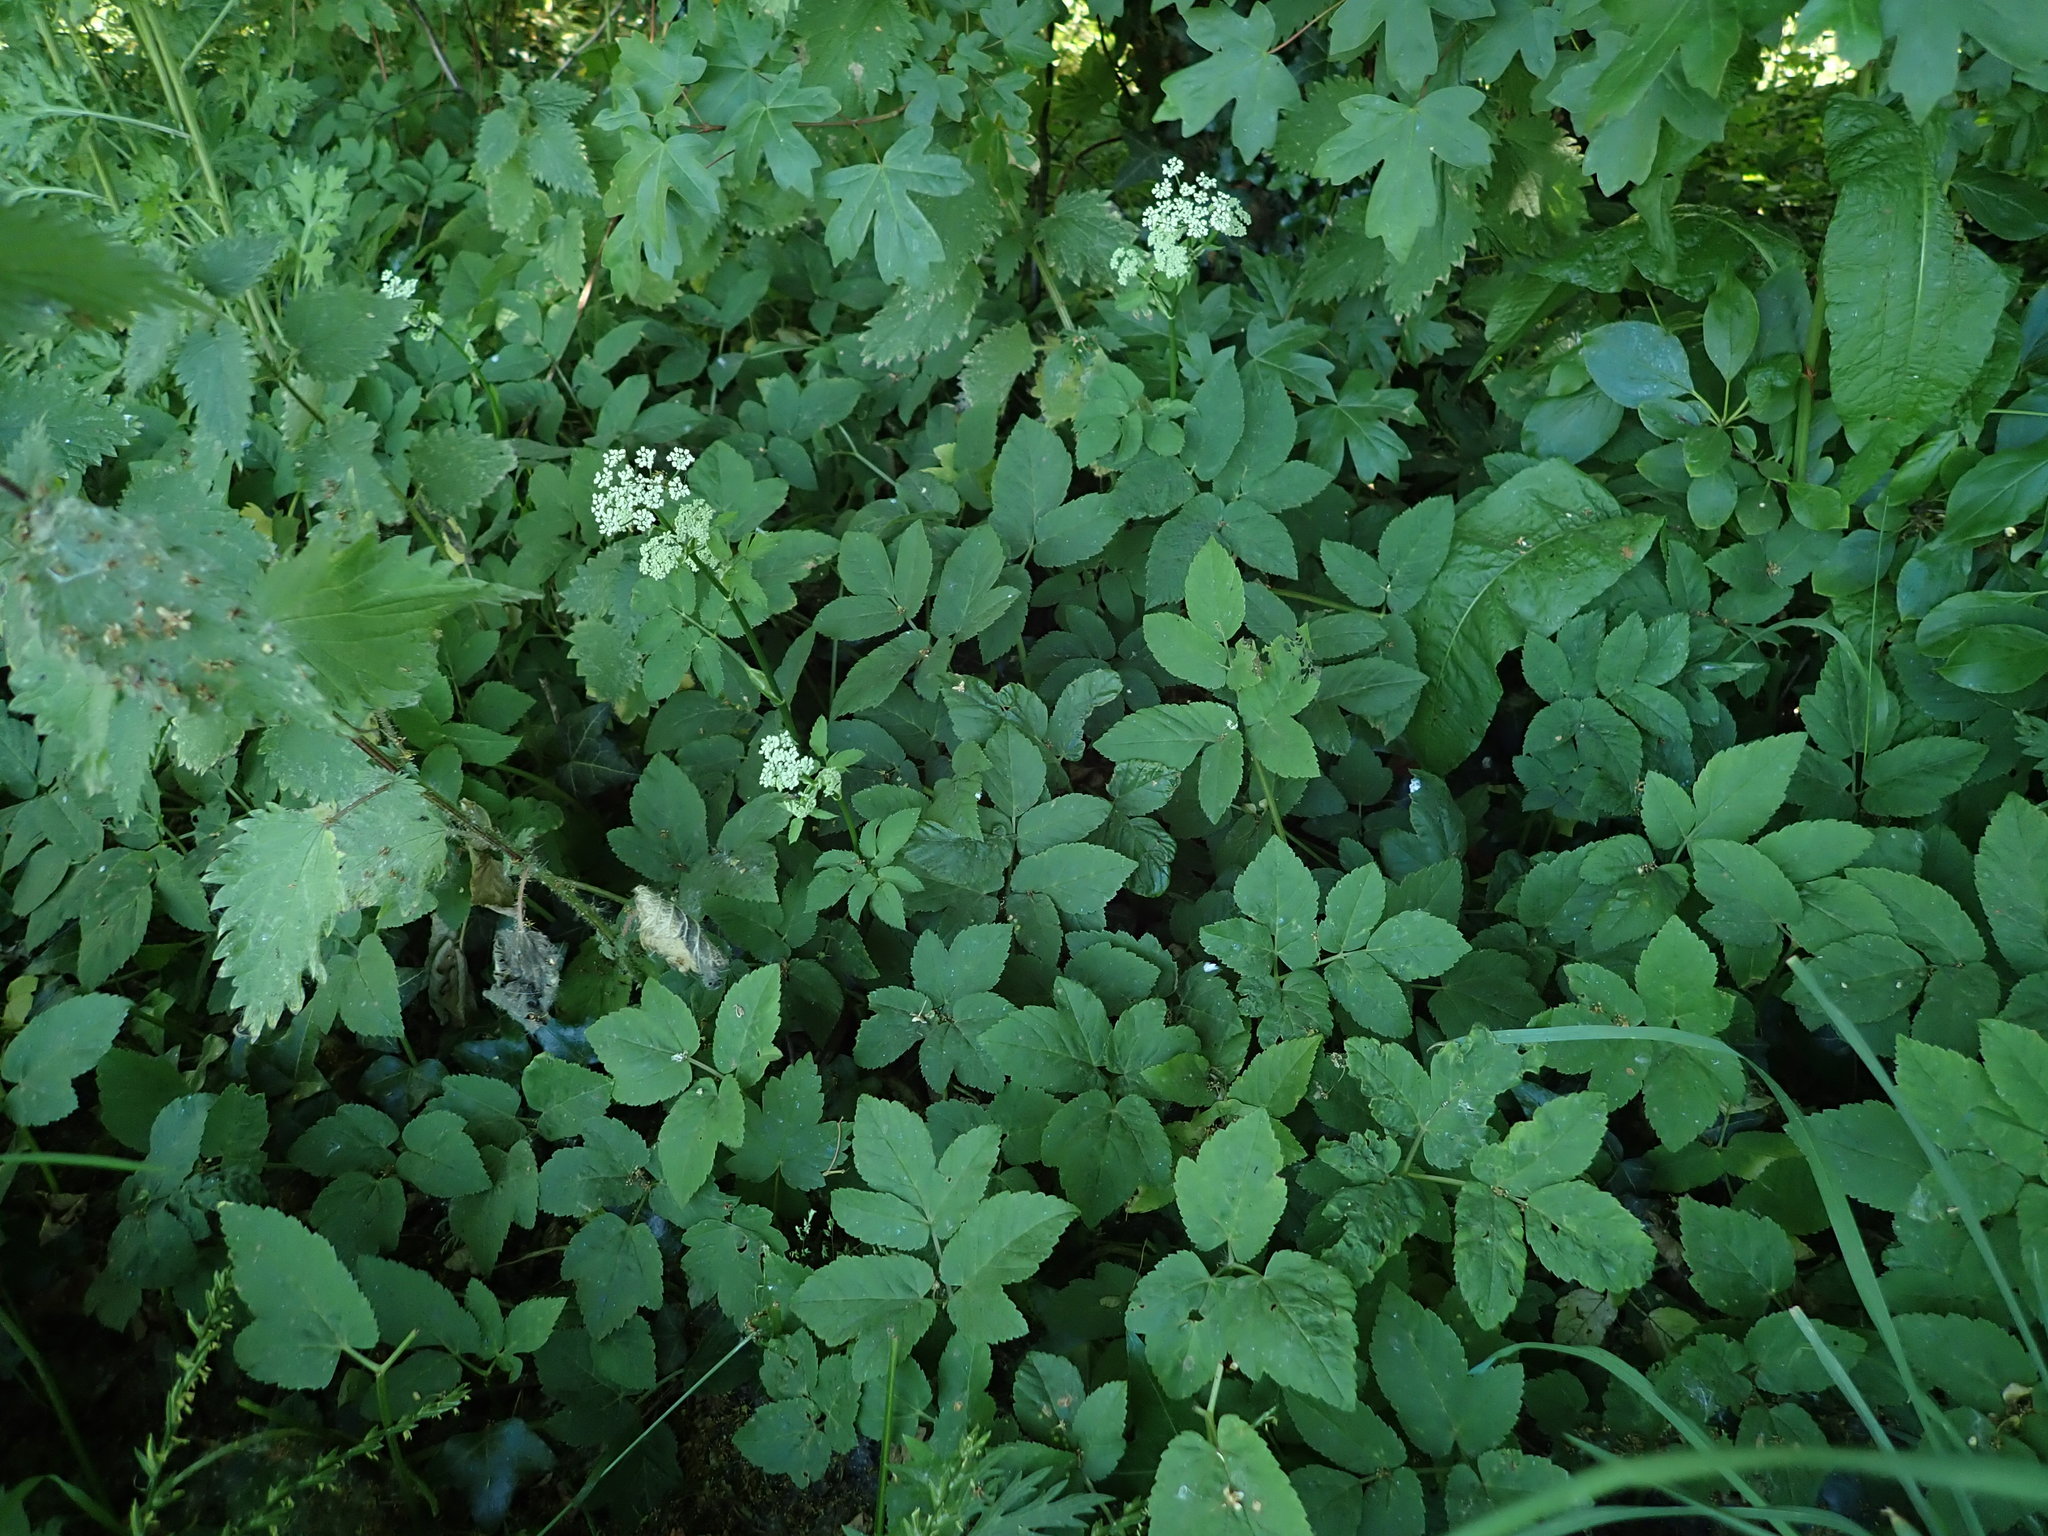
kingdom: Plantae
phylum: Tracheophyta
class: Magnoliopsida
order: Apiales
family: Apiaceae
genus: Aegopodium
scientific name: Aegopodium podagraria
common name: Ground-elder
